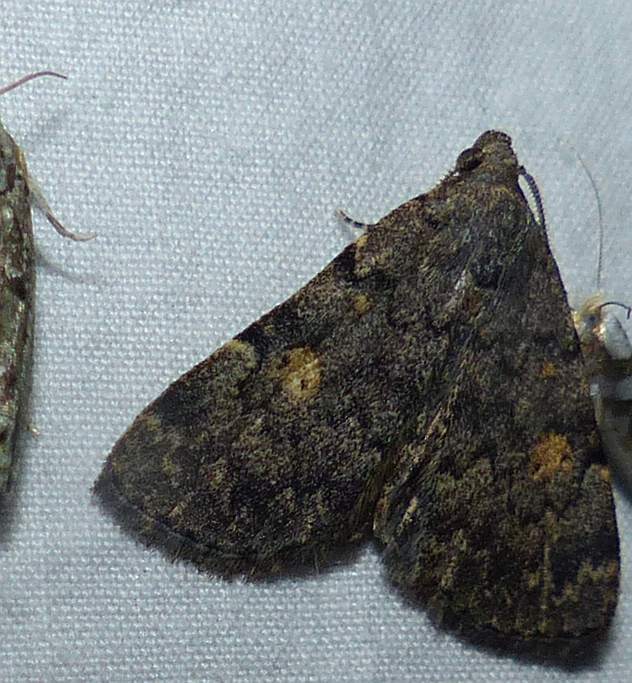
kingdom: Animalia
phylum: Arthropoda
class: Insecta
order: Lepidoptera
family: Erebidae
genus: Idia
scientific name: Idia aemula
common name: Common idia moth
